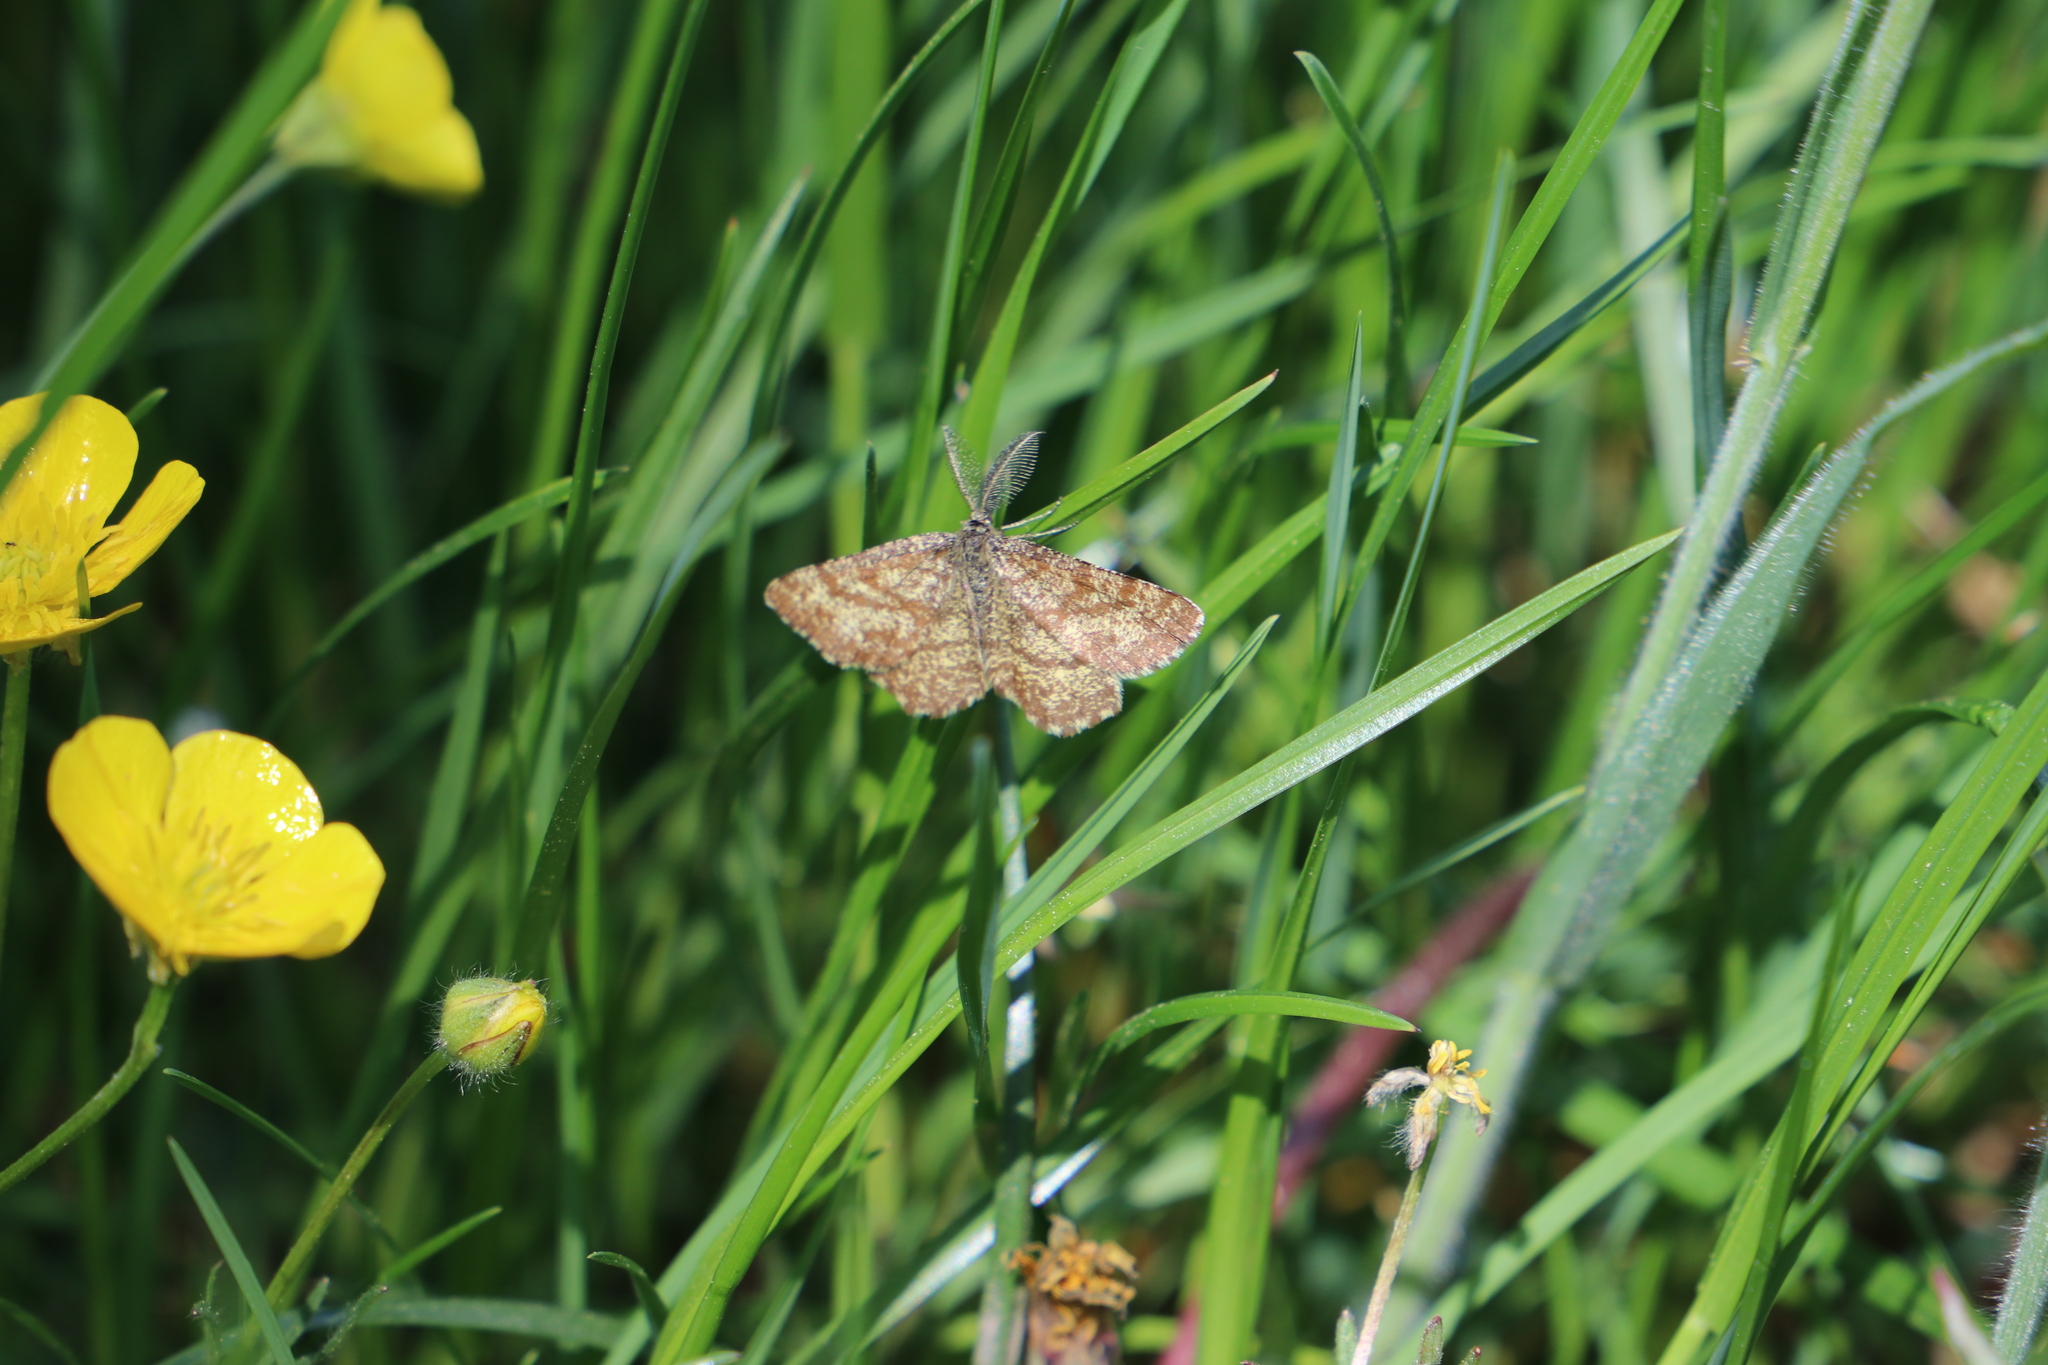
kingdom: Animalia
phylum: Arthropoda
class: Insecta
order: Lepidoptera
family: Geometridae
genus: Ematurga
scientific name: Ematurga atomaria
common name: Common heath
